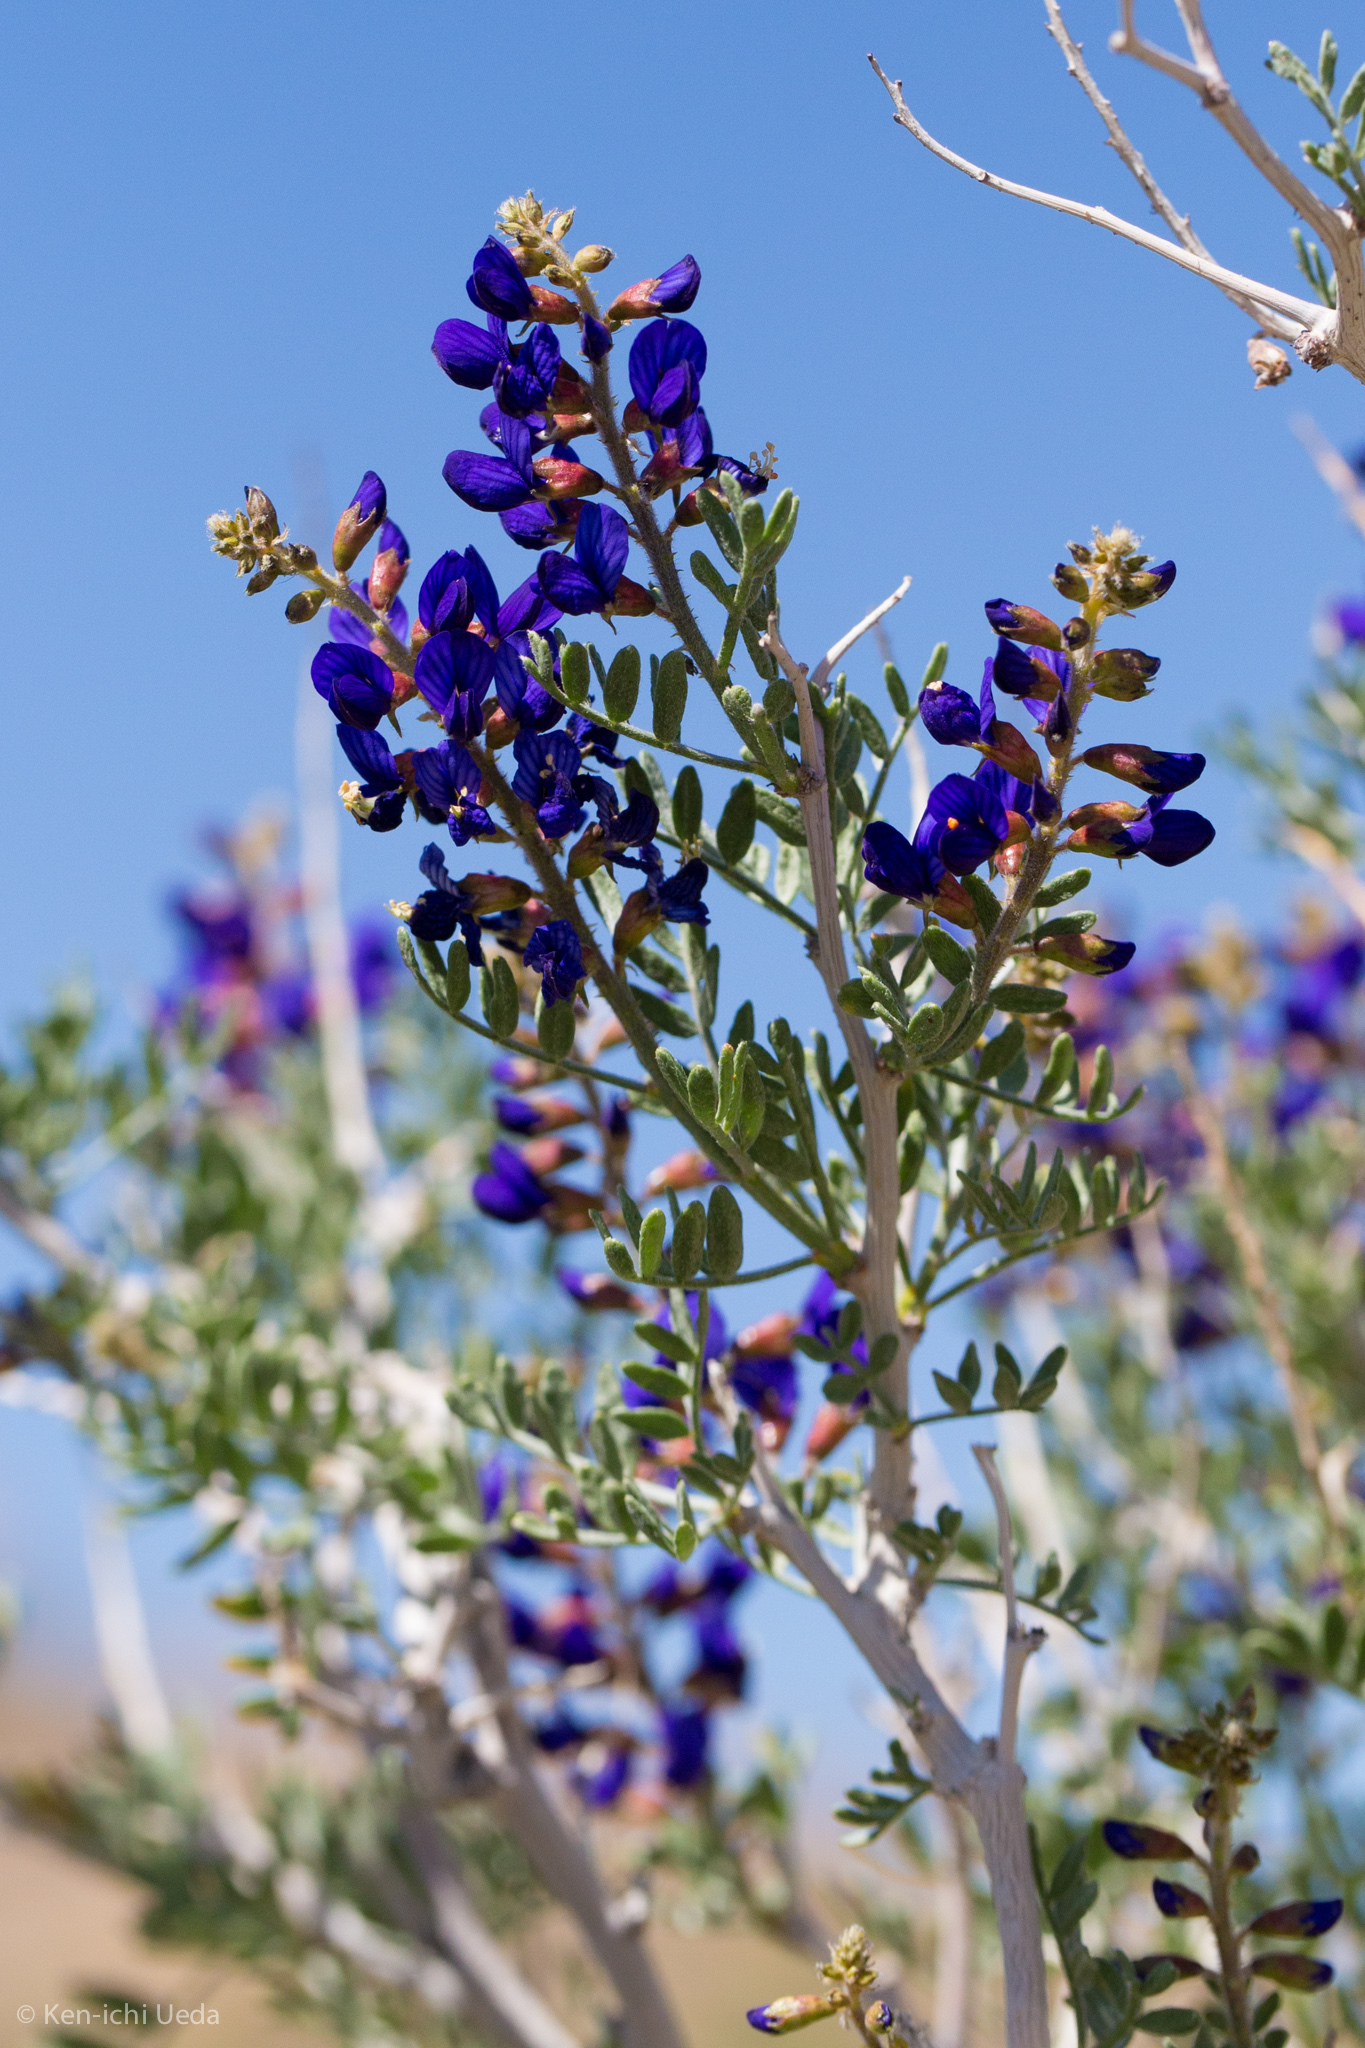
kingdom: Plantae
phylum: Tracheophyta
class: Magnoliopsida
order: Fabales
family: Fabaceae
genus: Psorothamnus
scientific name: Psorothamnus arborescens
